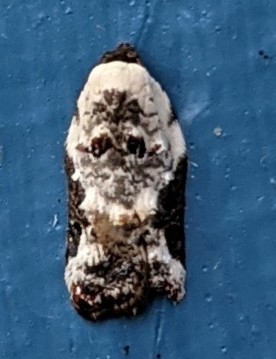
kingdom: Animalia
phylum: Arthropoda
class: Insecta
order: Lepidoptera
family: Tortricidae
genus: Acleris
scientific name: Acleris nivisellana
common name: Snowy-shouldered acleris moth
